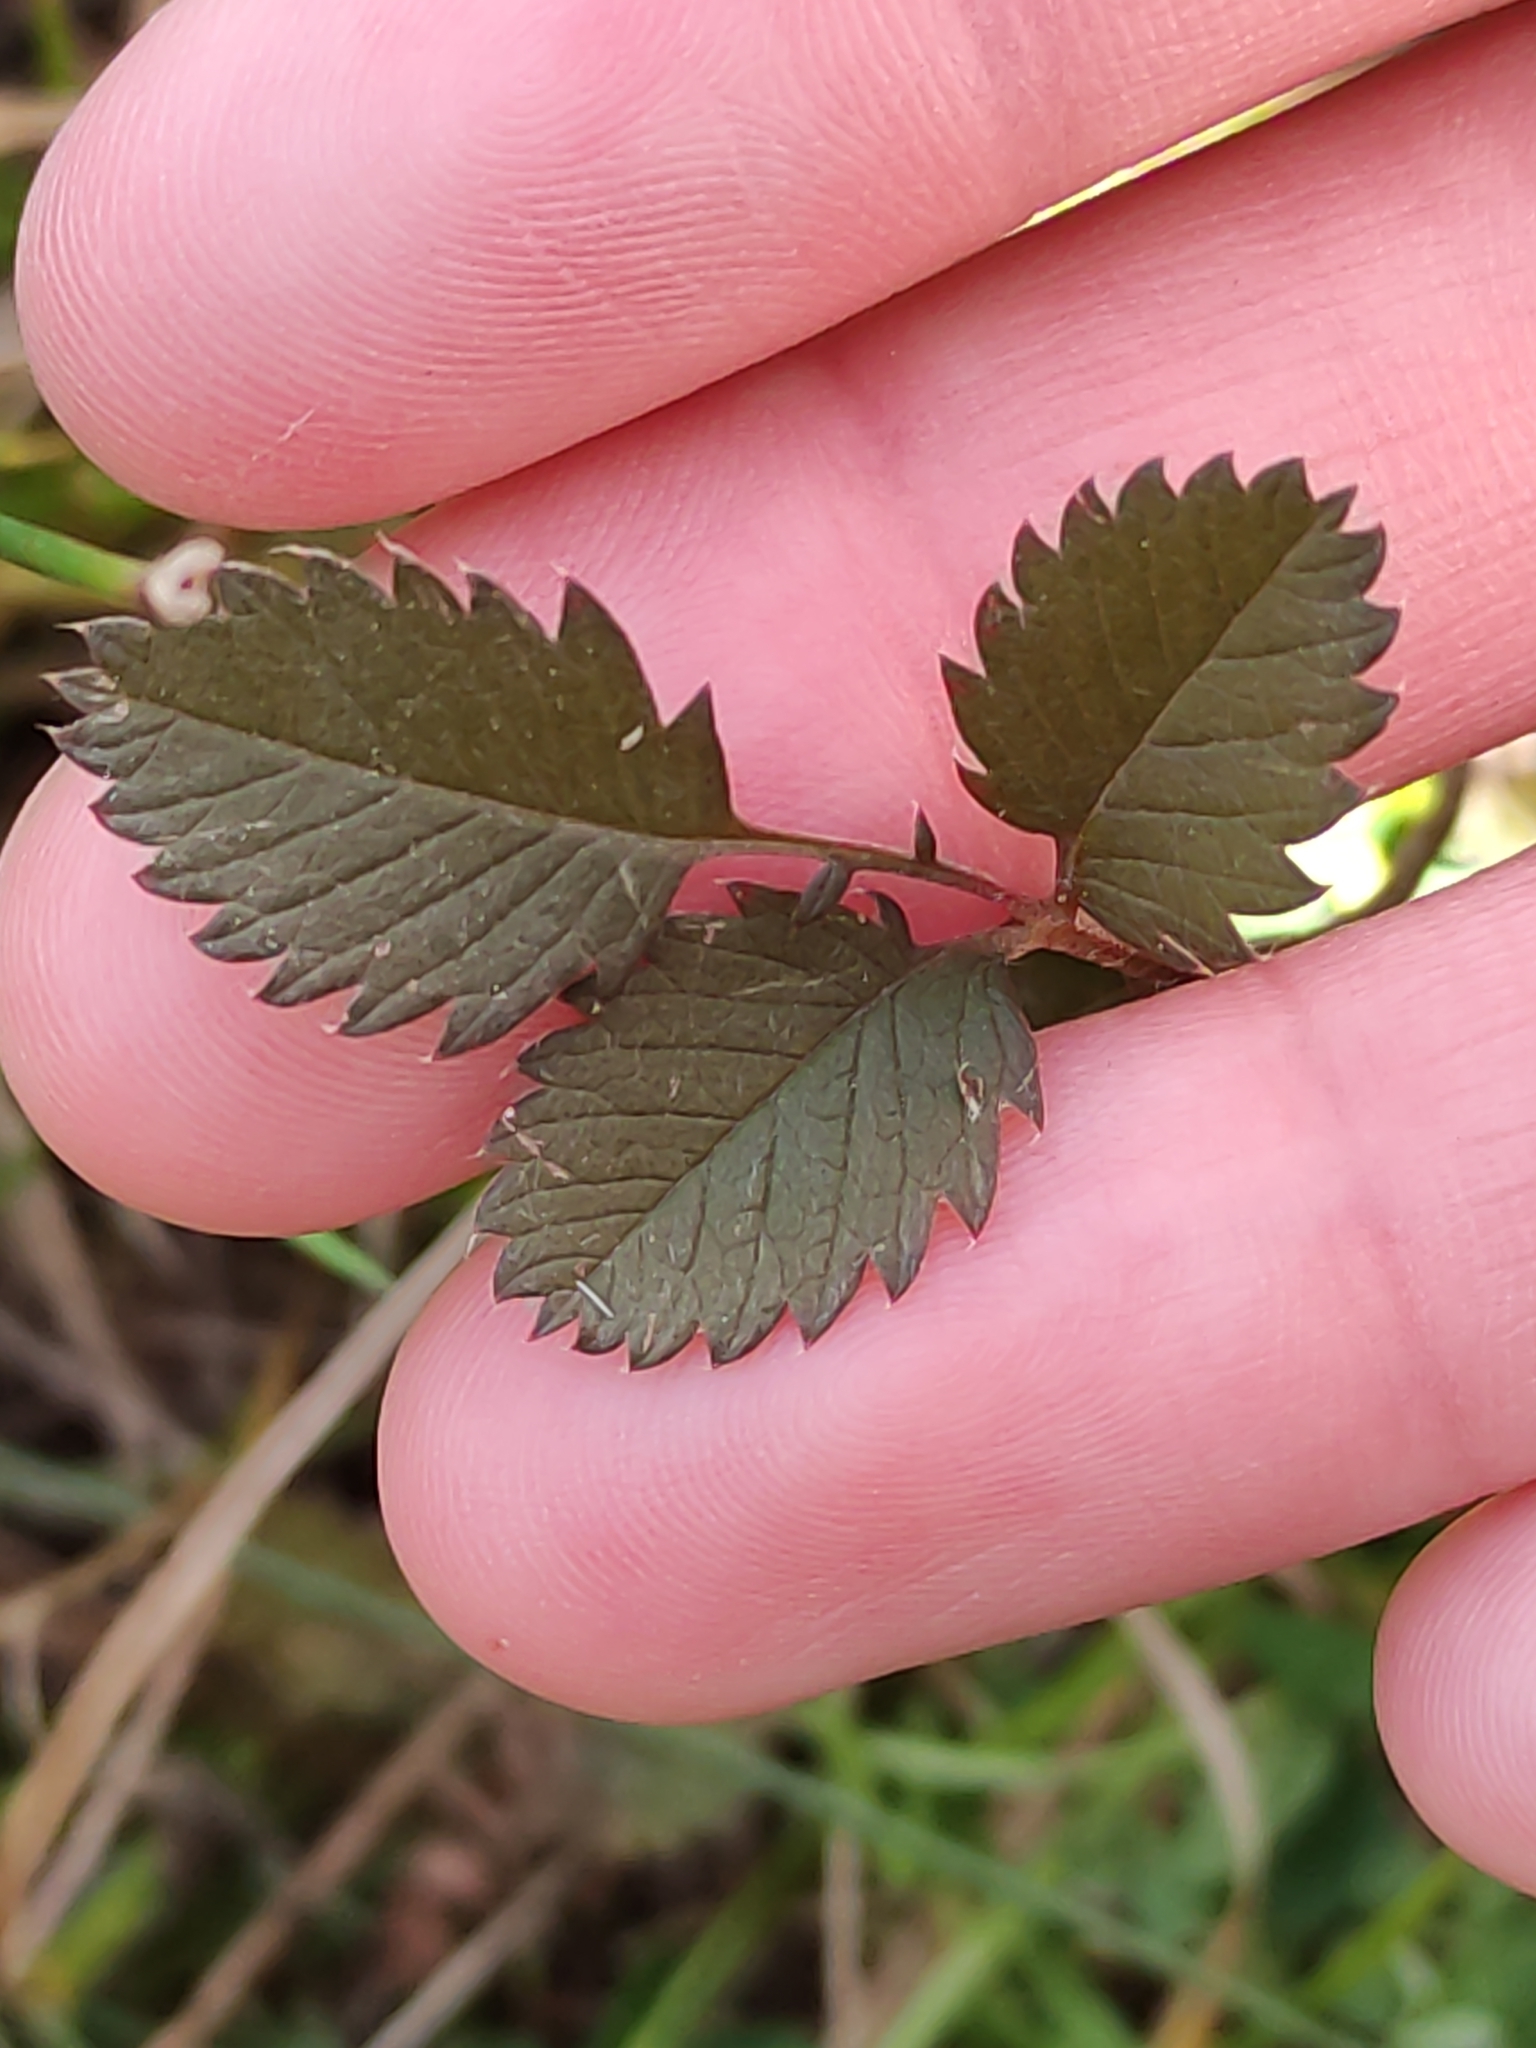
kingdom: Plantae
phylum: Tracheophyta
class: Magnoliopsida
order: Rosales
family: Rosaceae
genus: Argentina
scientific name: Argentina anserinoides
